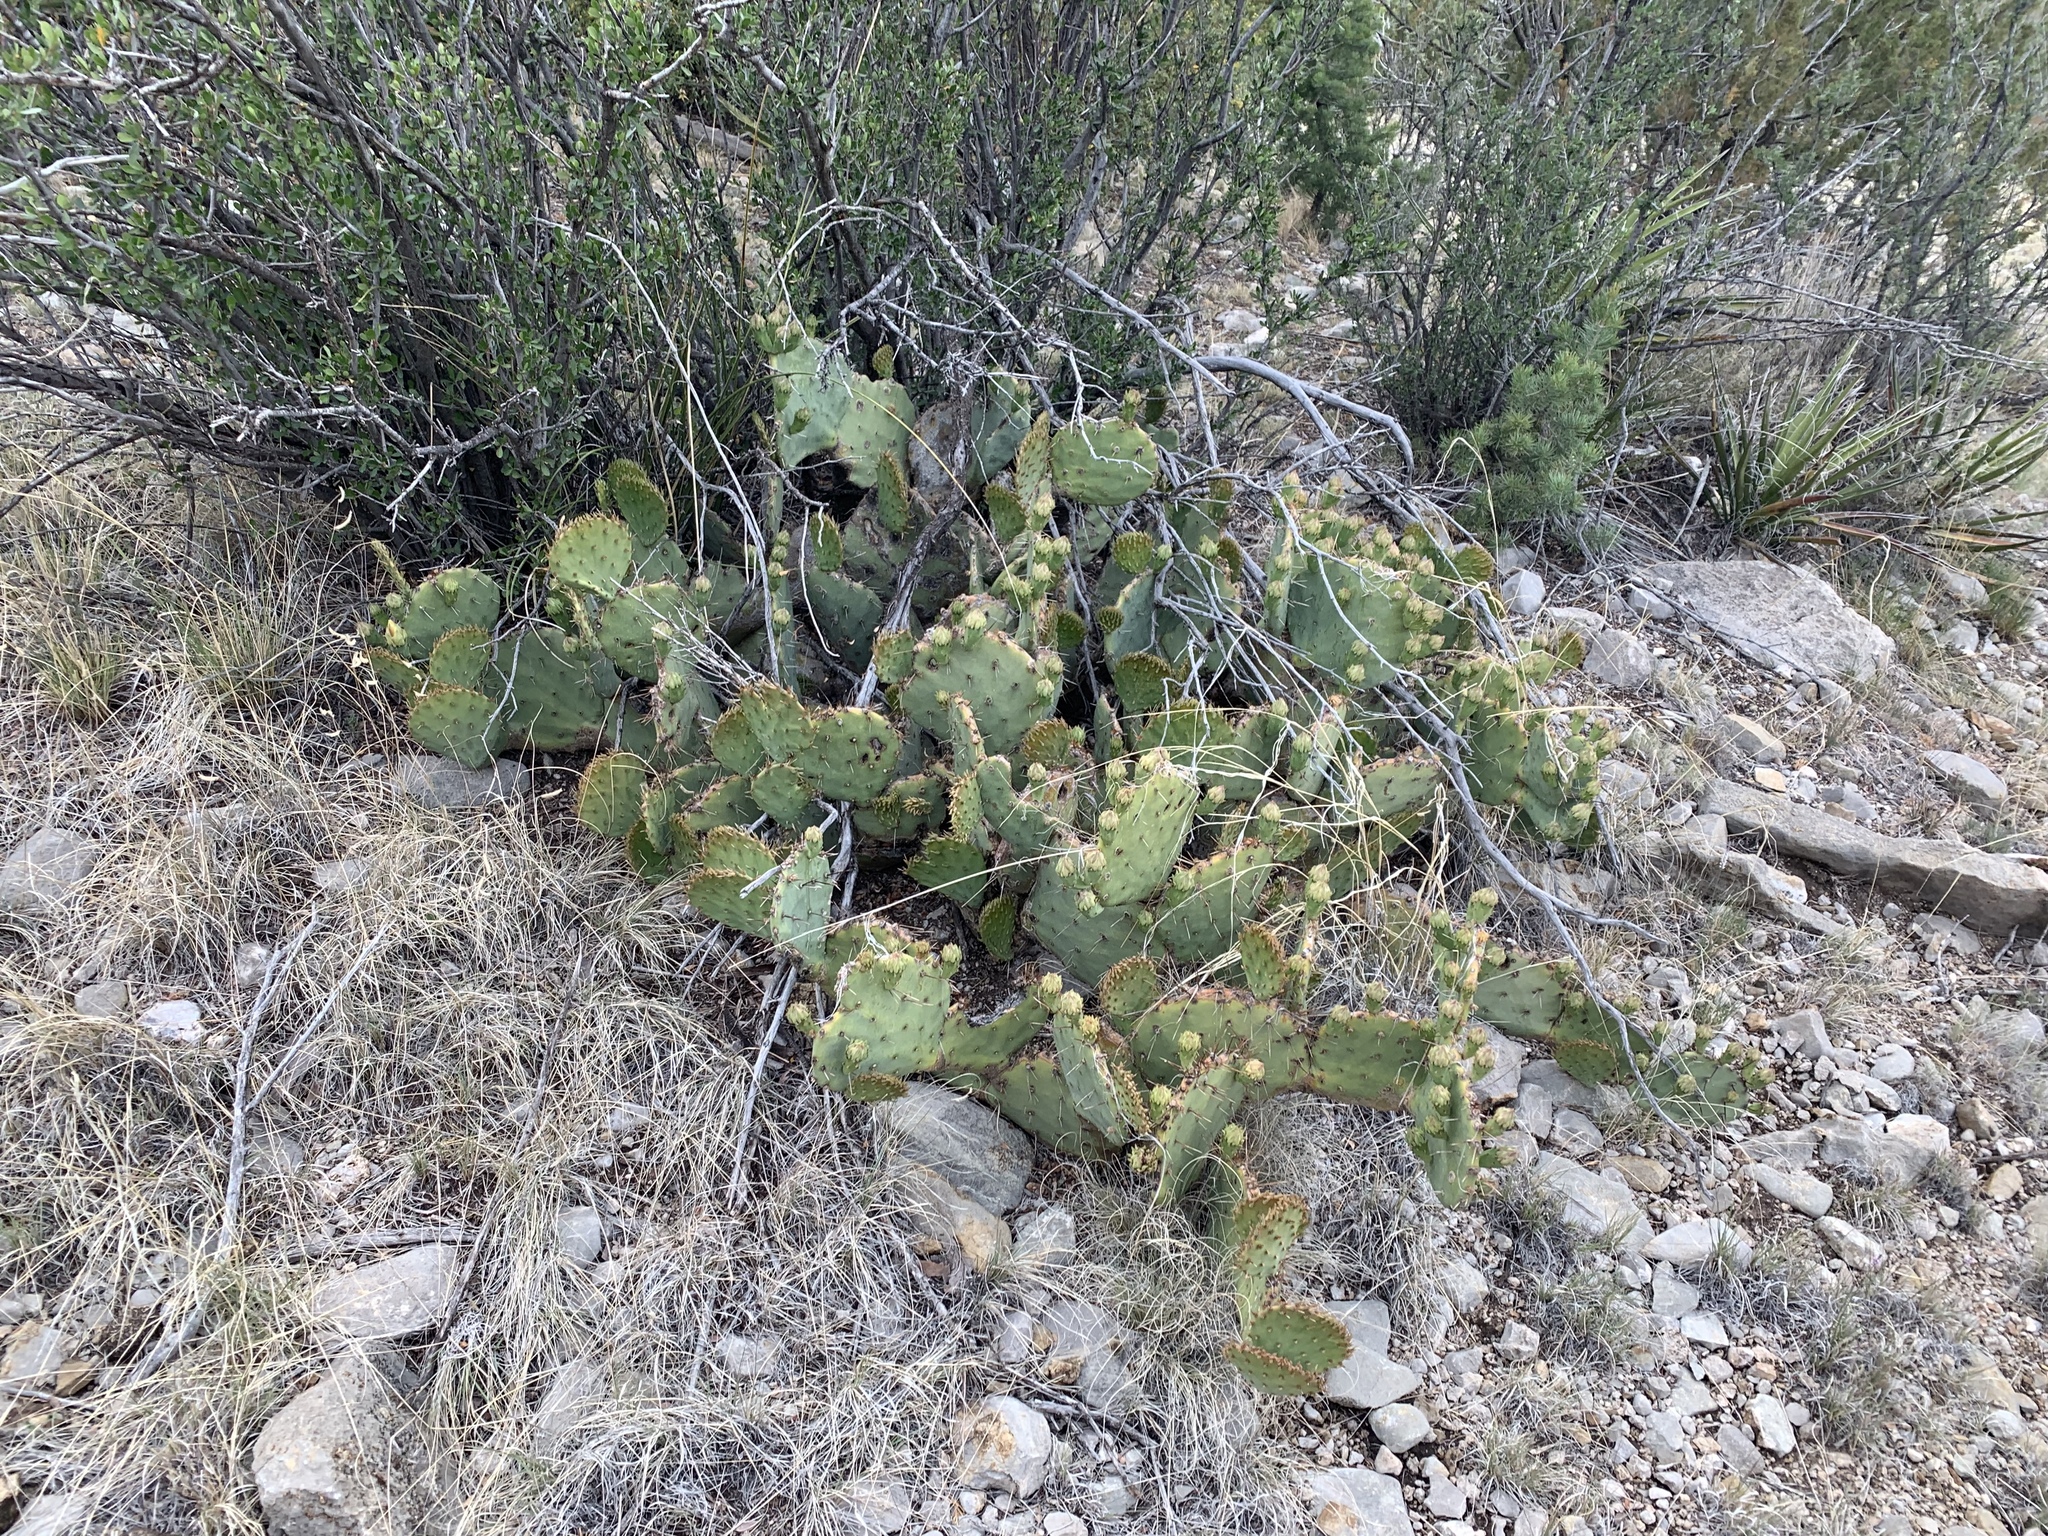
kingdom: Plantae
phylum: Tracheophyta
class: Magnoliopsida
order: Caryophyllales
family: Cactaceae
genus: Opuntia
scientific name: Opuntia engelmannii
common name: Cactus-apple
